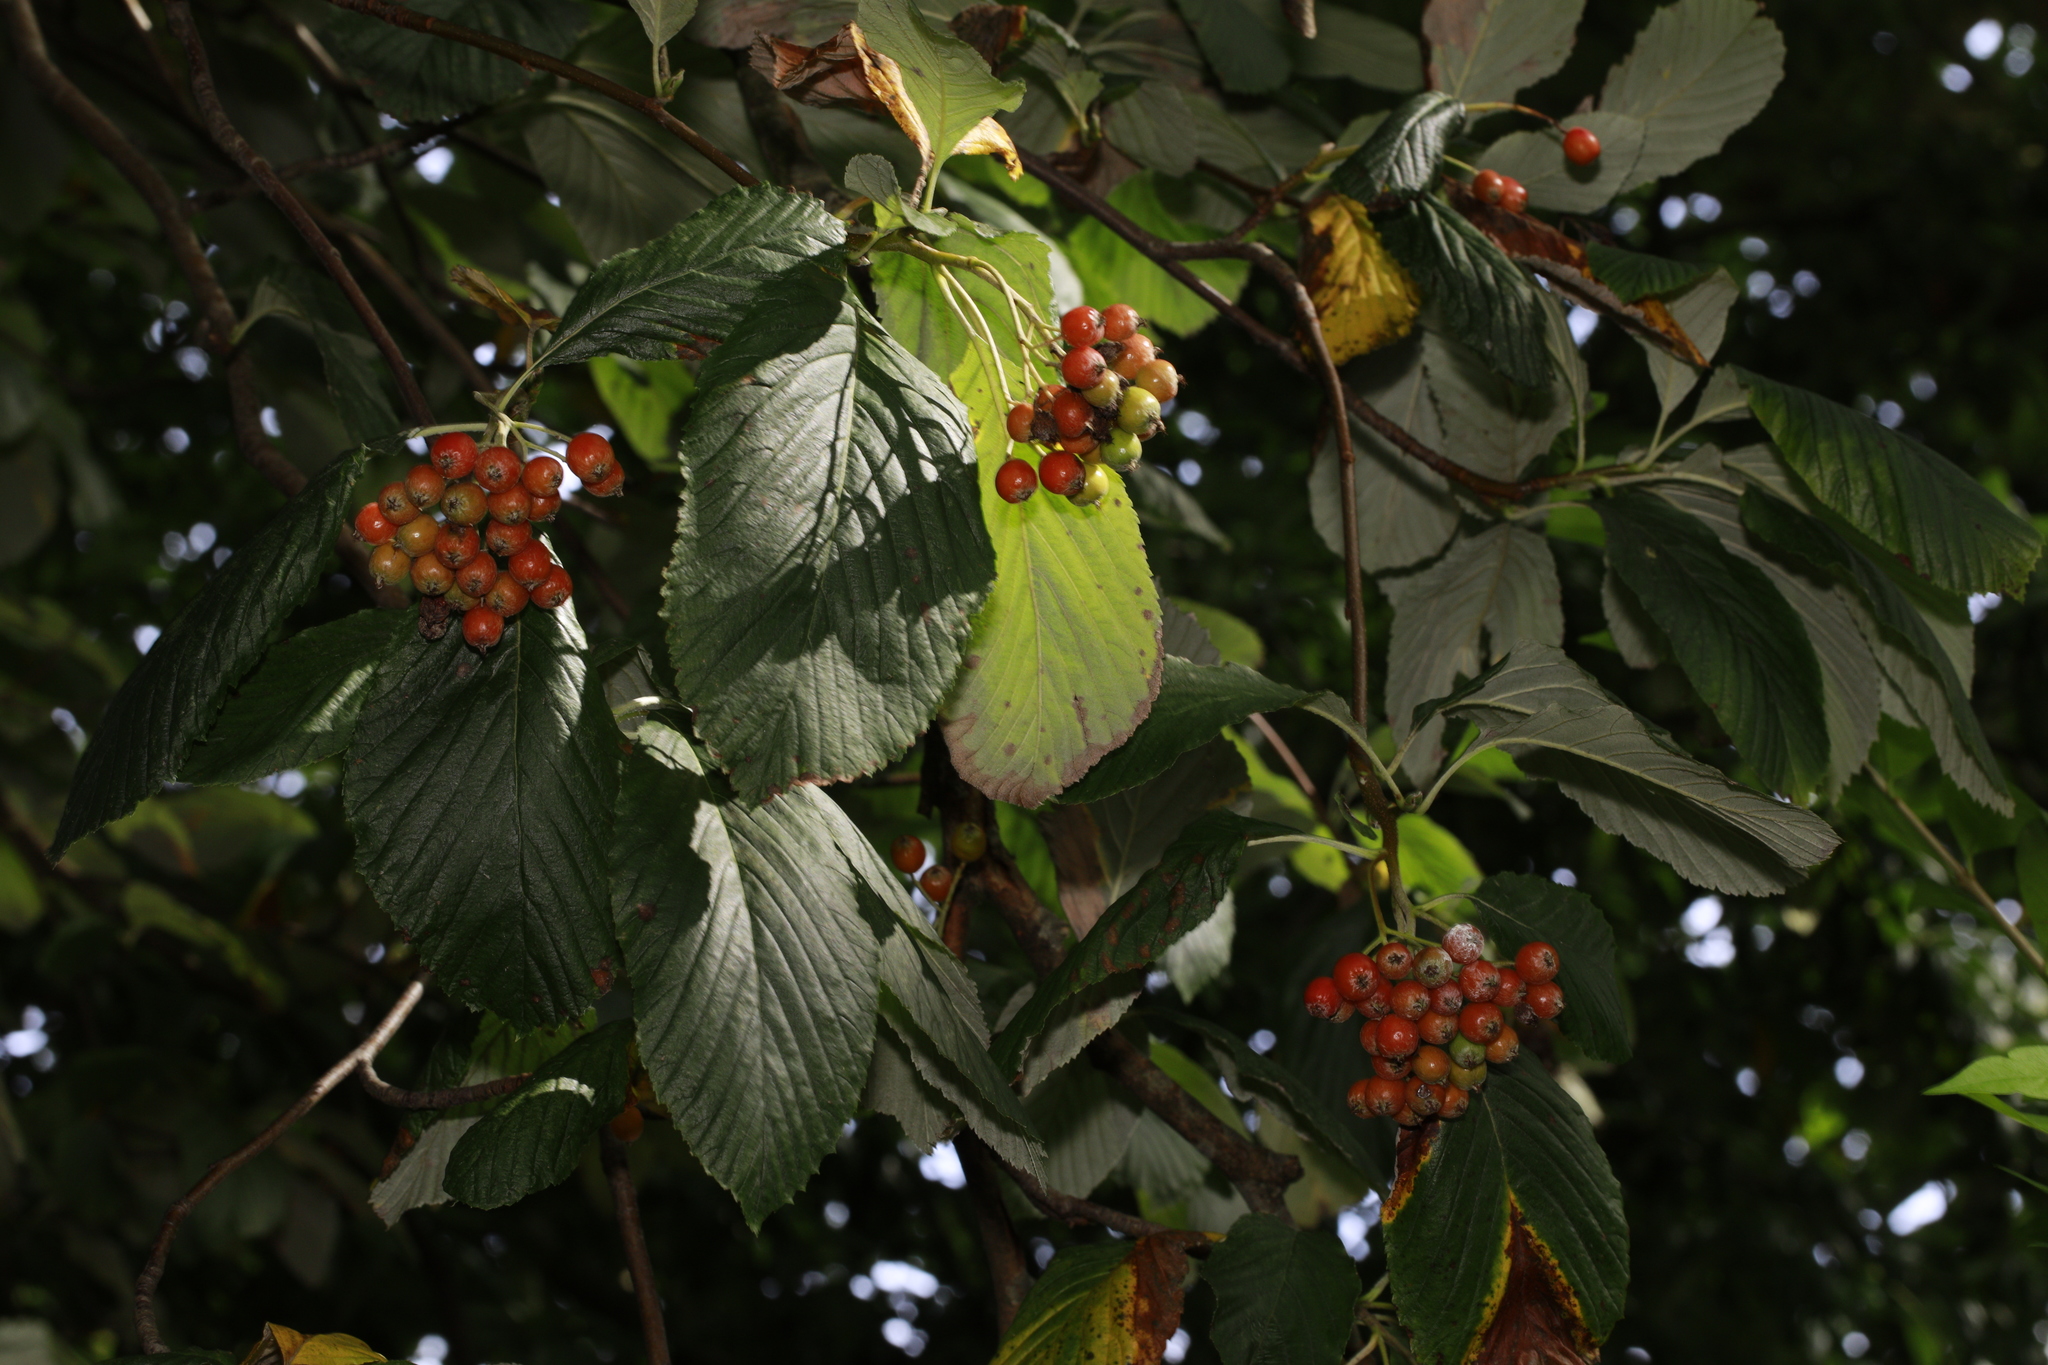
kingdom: Plantae
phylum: Tracheophyta
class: Magnoliopsida
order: Rosales
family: Rosaceae
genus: Aria
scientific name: Aria edulis
